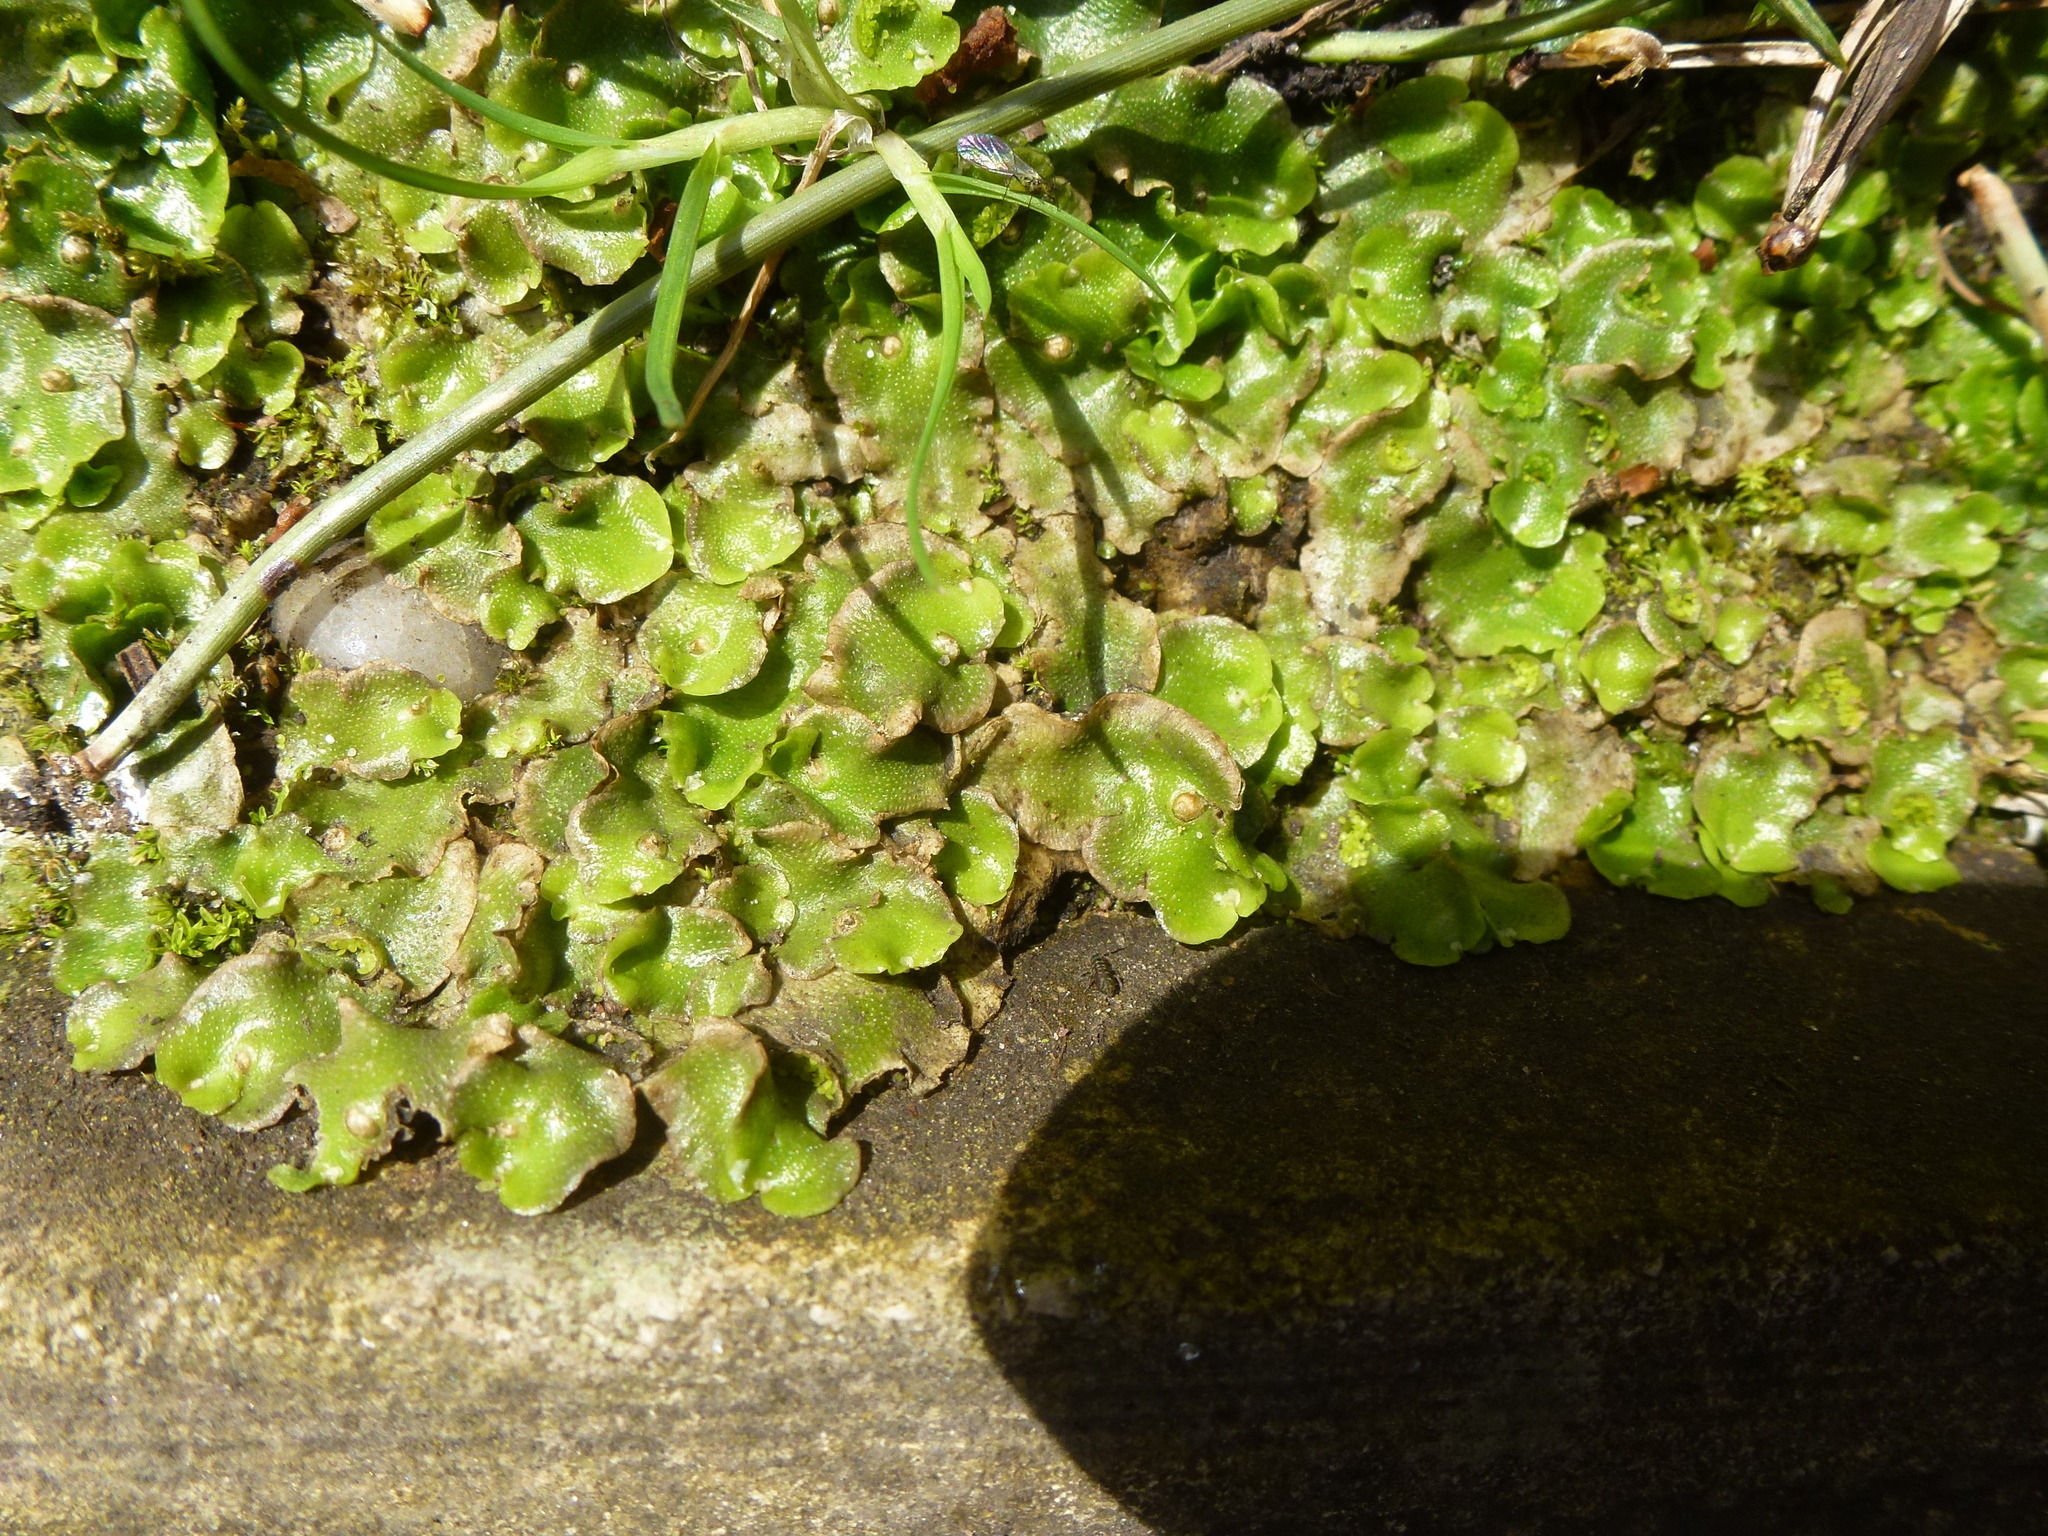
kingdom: Plantae
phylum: Marchantiophyta
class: Marchantiopsida
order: Lunulariales
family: Lunulariaceae
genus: Lunularia
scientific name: Lunularia cruciata
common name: Crescent-cup liverwort
